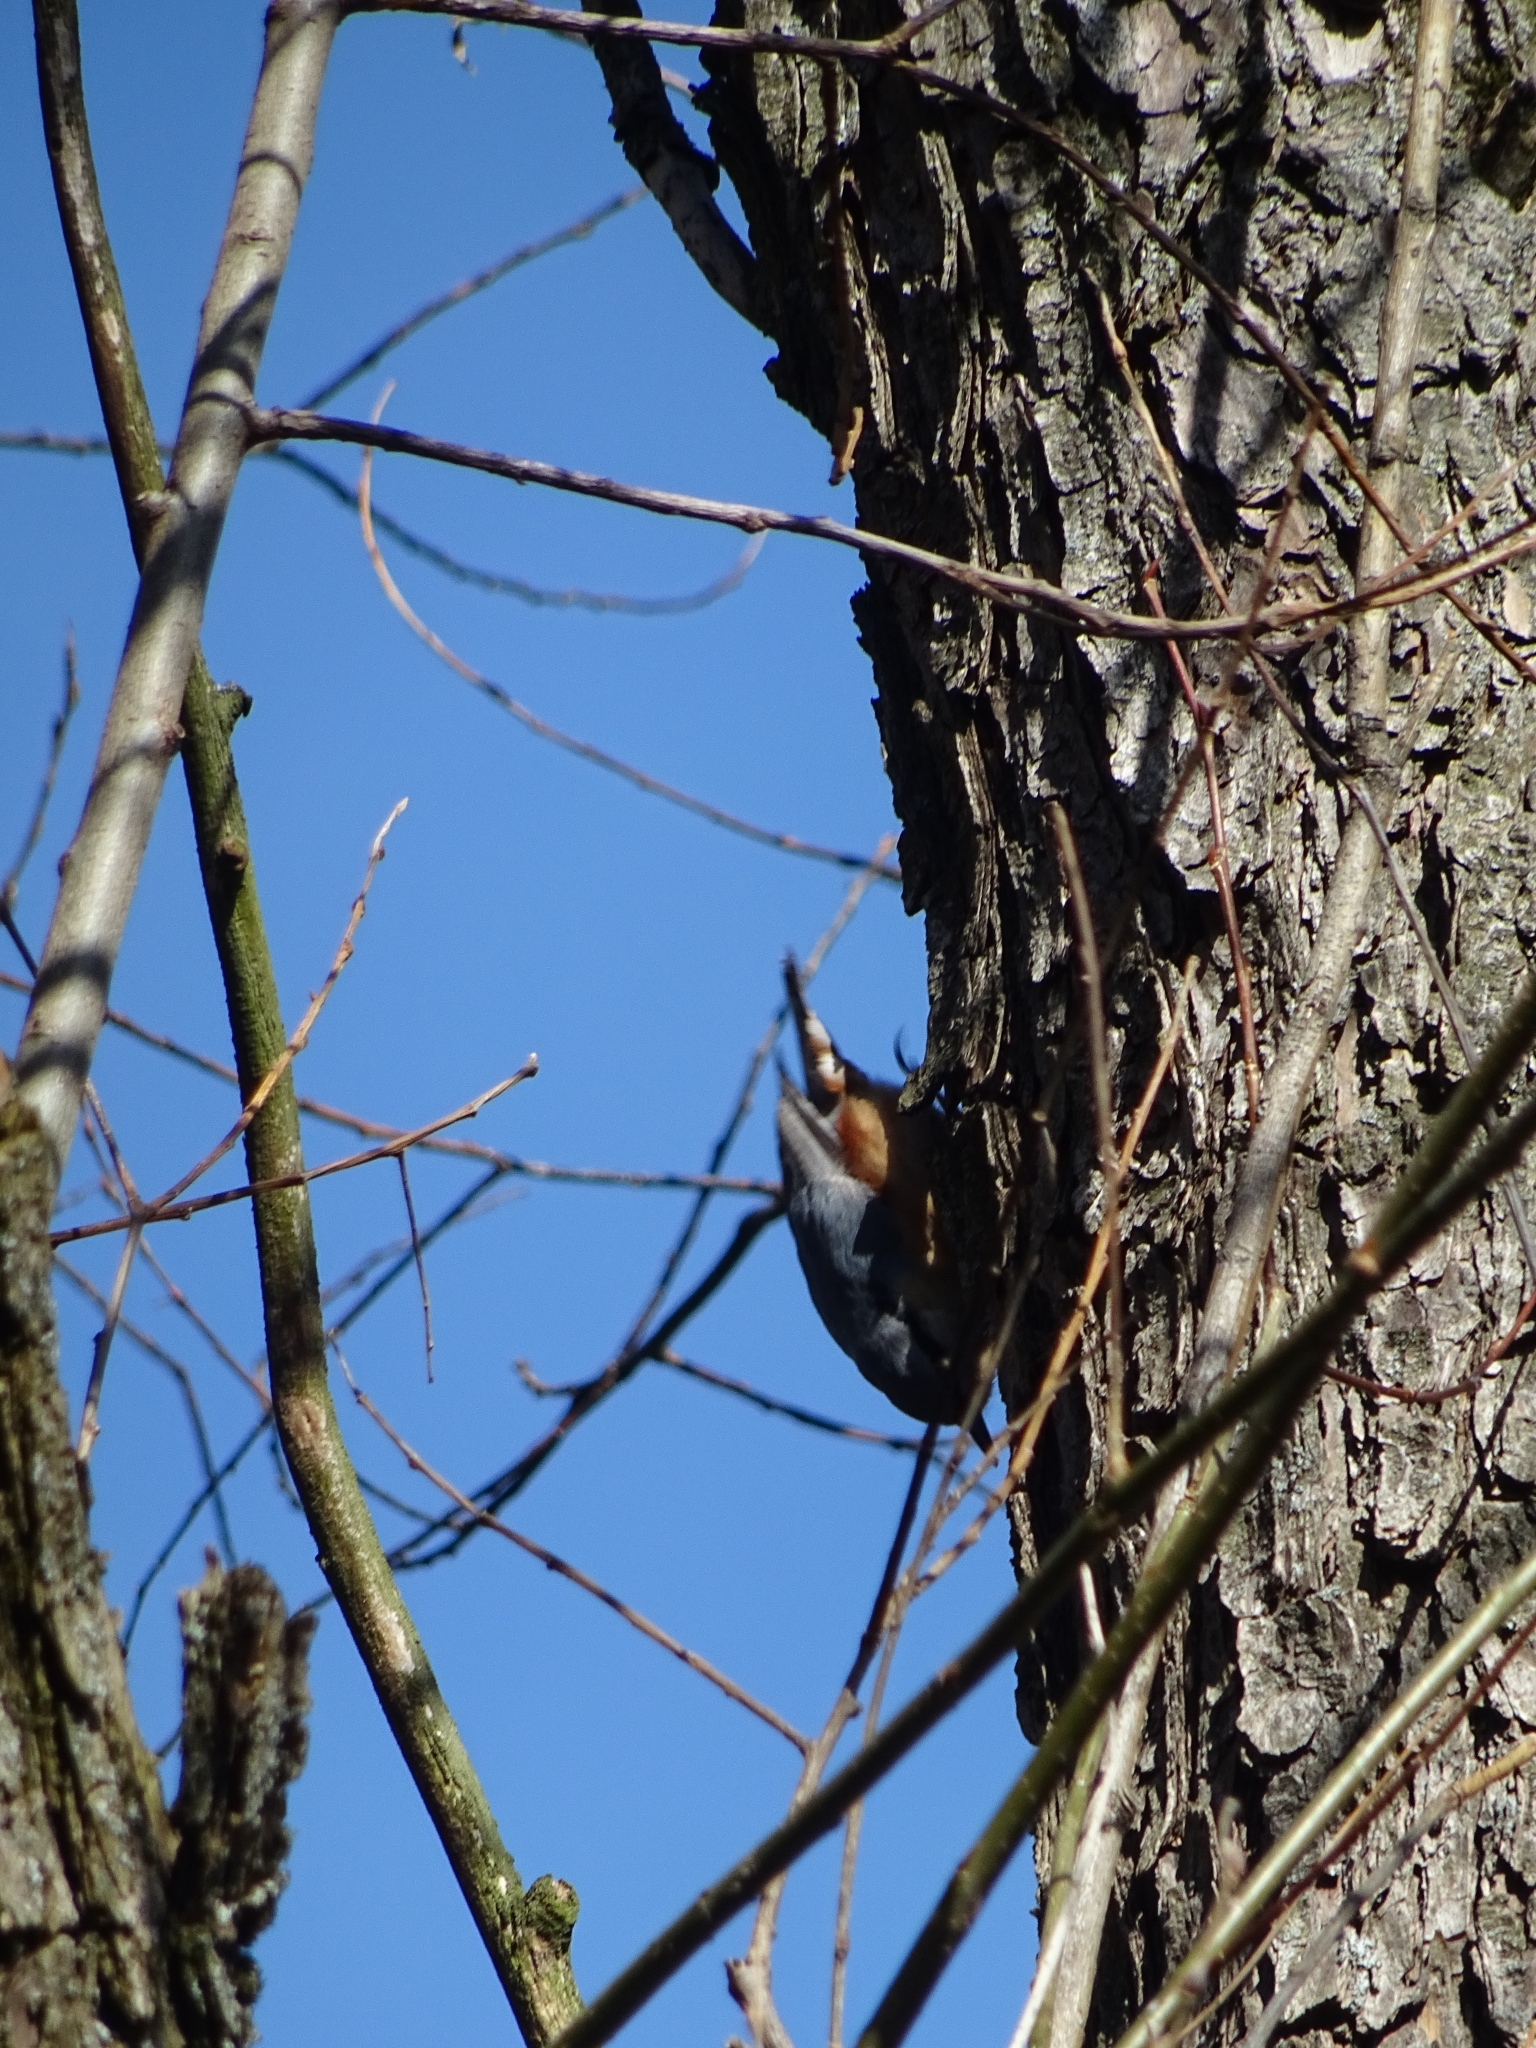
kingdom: Animalia
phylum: Chordata
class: Aves
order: Passeriformes
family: Sittidae
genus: Sitta
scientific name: Sitta europaea
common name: Eurasian nuthatch
